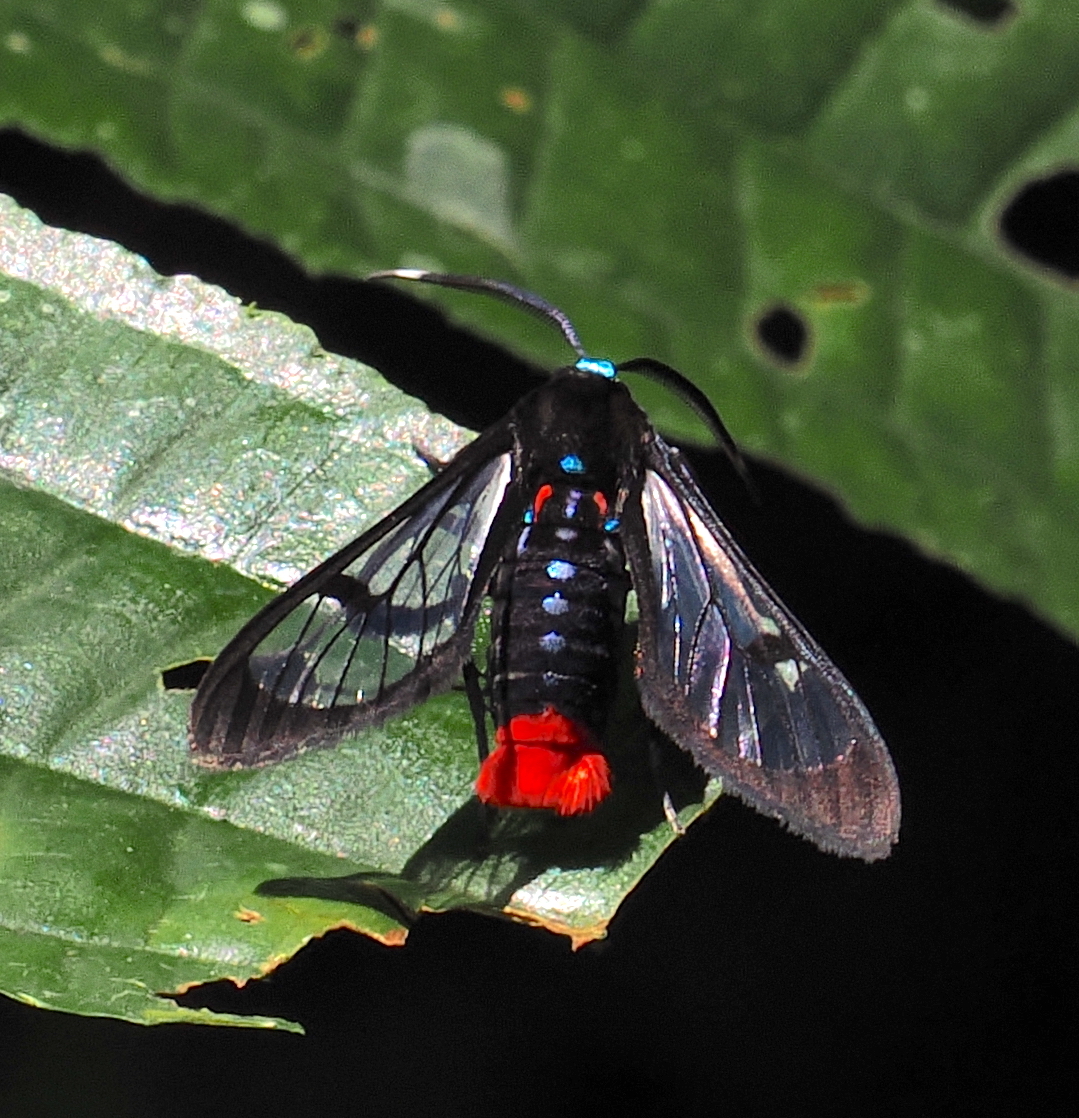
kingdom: Animalia
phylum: Arthropoda
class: Insecta
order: Lepidoptera
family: Erebidae
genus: Phoenicoprocta
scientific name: Phoenicoprocta ignicauda
